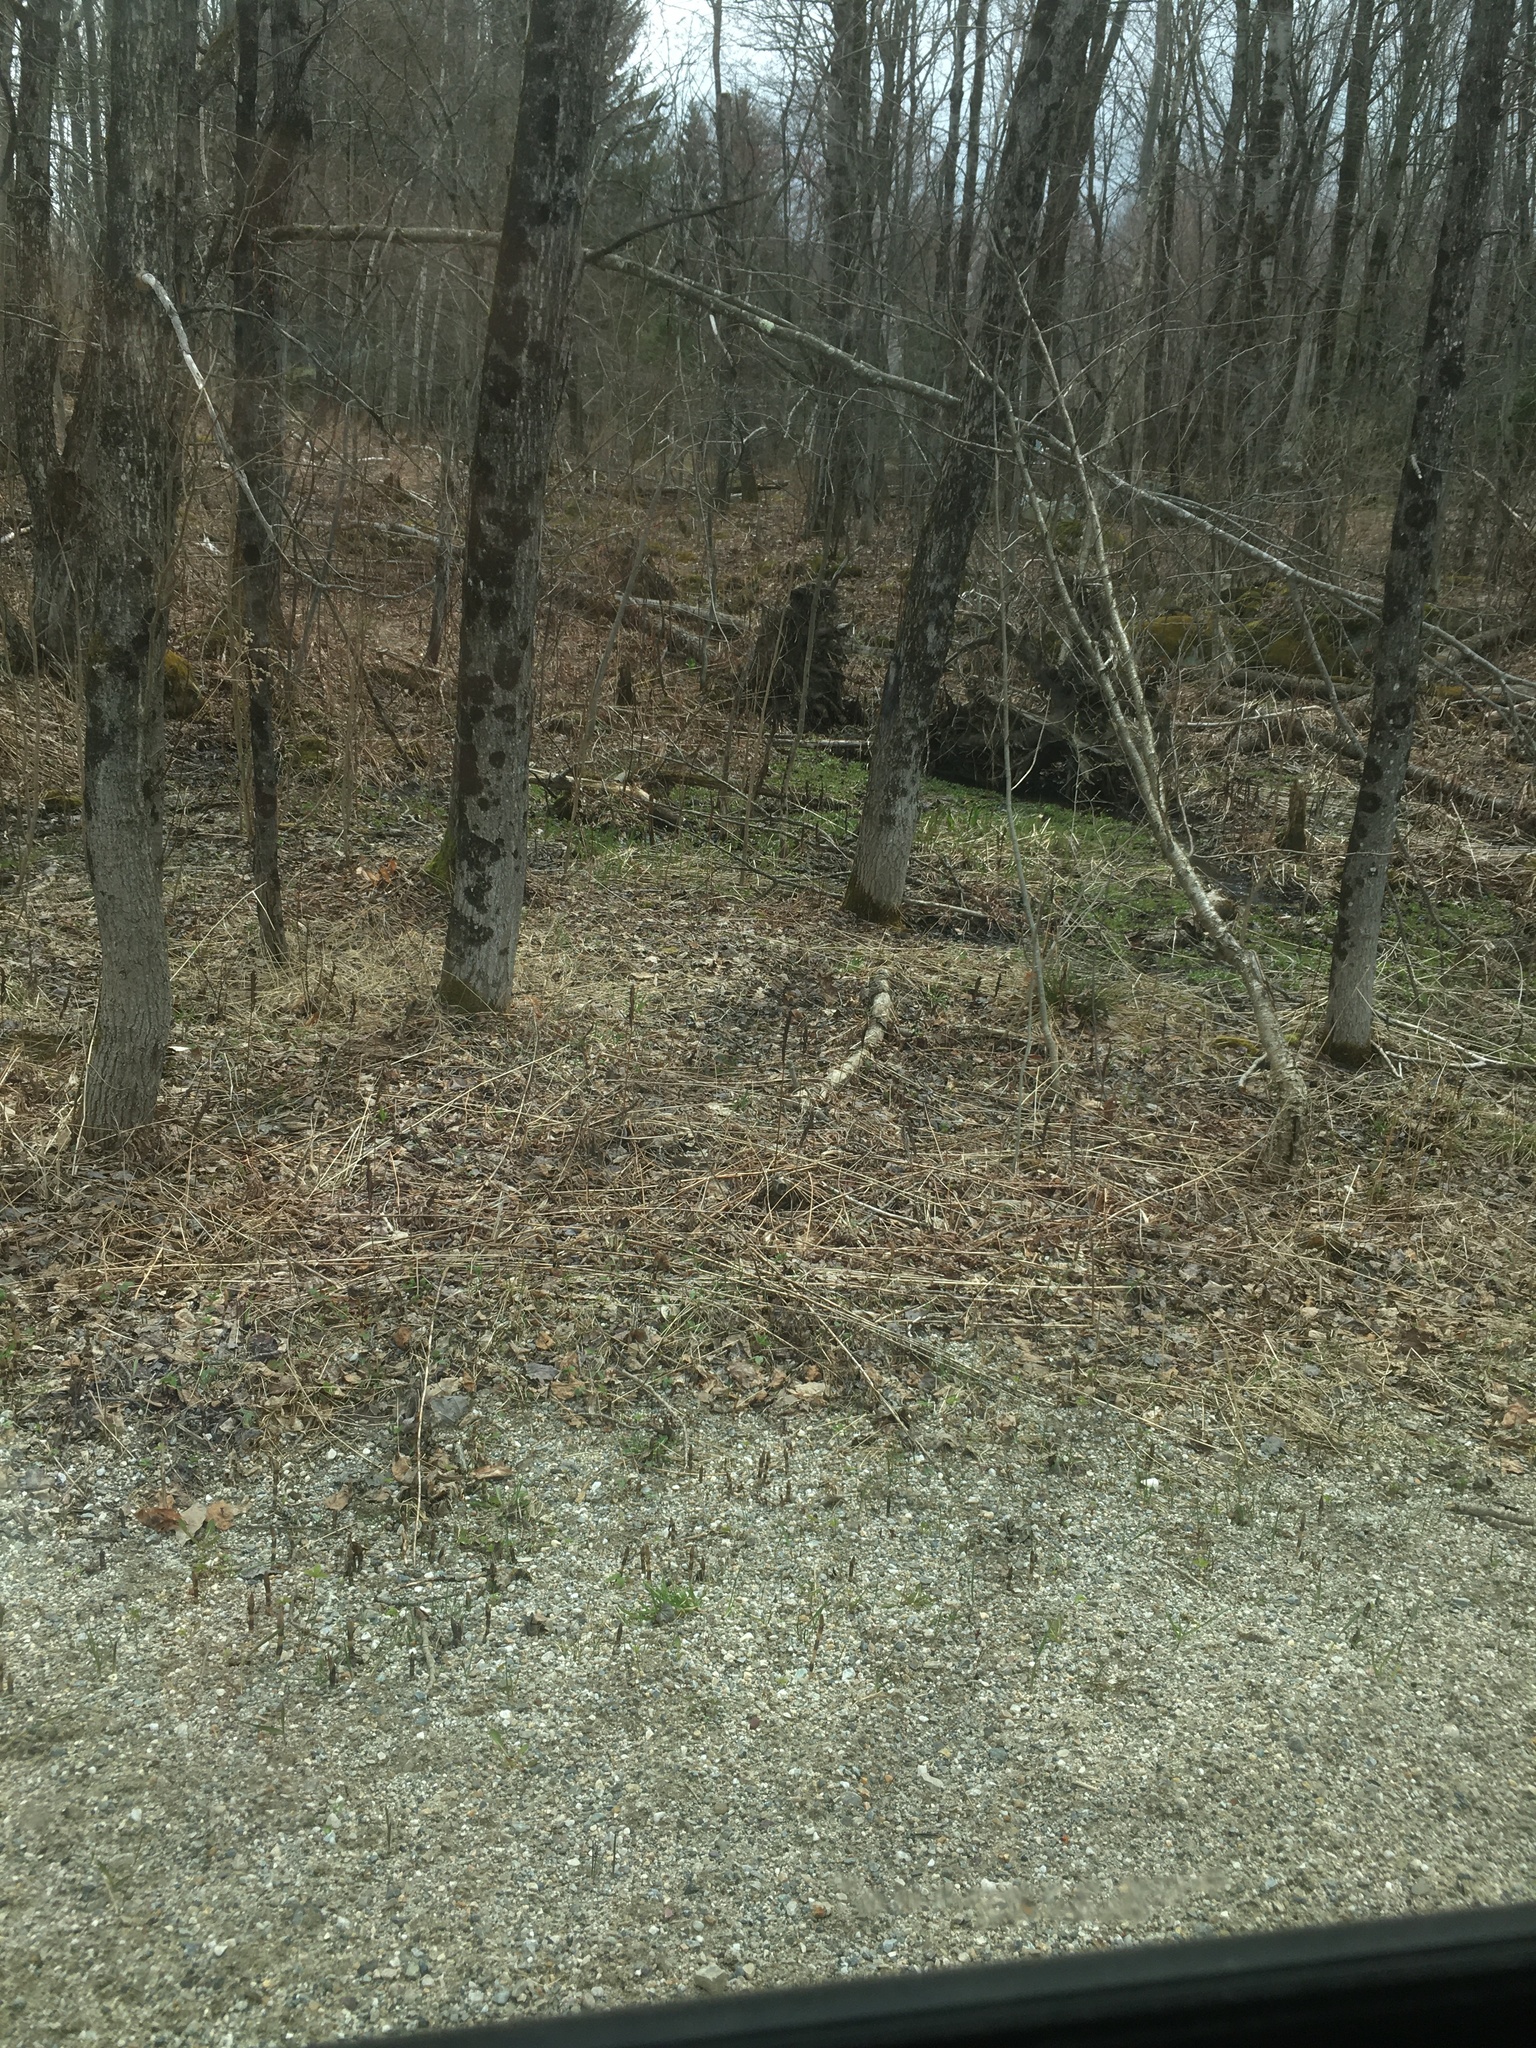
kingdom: Plantae
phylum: Tracheophyta
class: Polypodiopsida
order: Polypodiales
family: Onocleaceae
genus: Onoclea
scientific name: Onoclea sensibilis
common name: Sensitive fern
